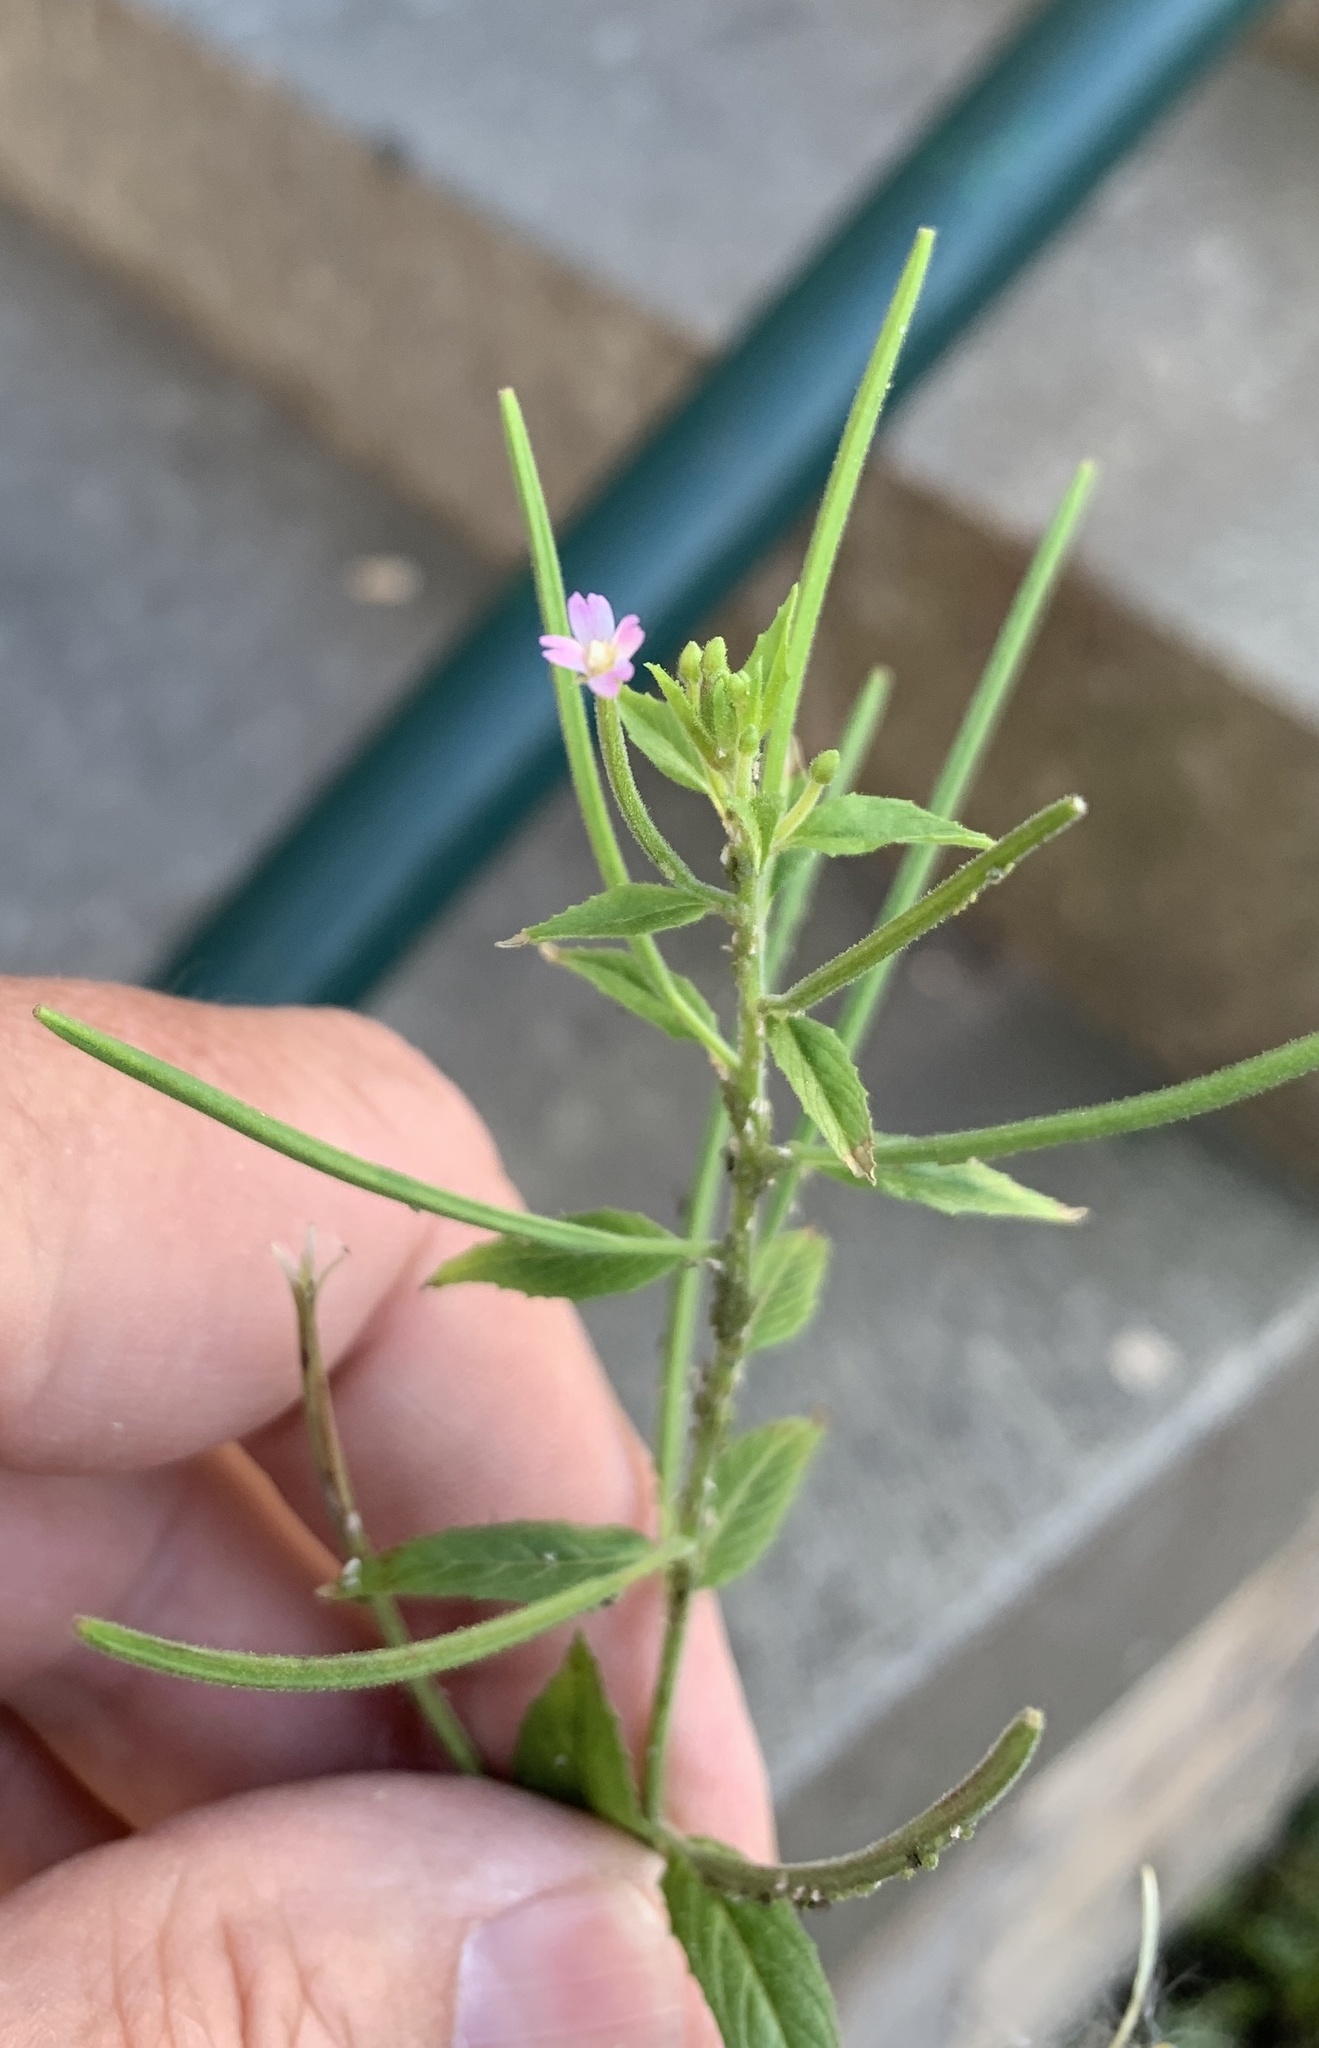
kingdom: Plantae
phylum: Tracheophyta
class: Magnoliopsida
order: Myrtales
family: Onagraceae
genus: Epilobium
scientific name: Epilobium ciliatum
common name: American willowherb
